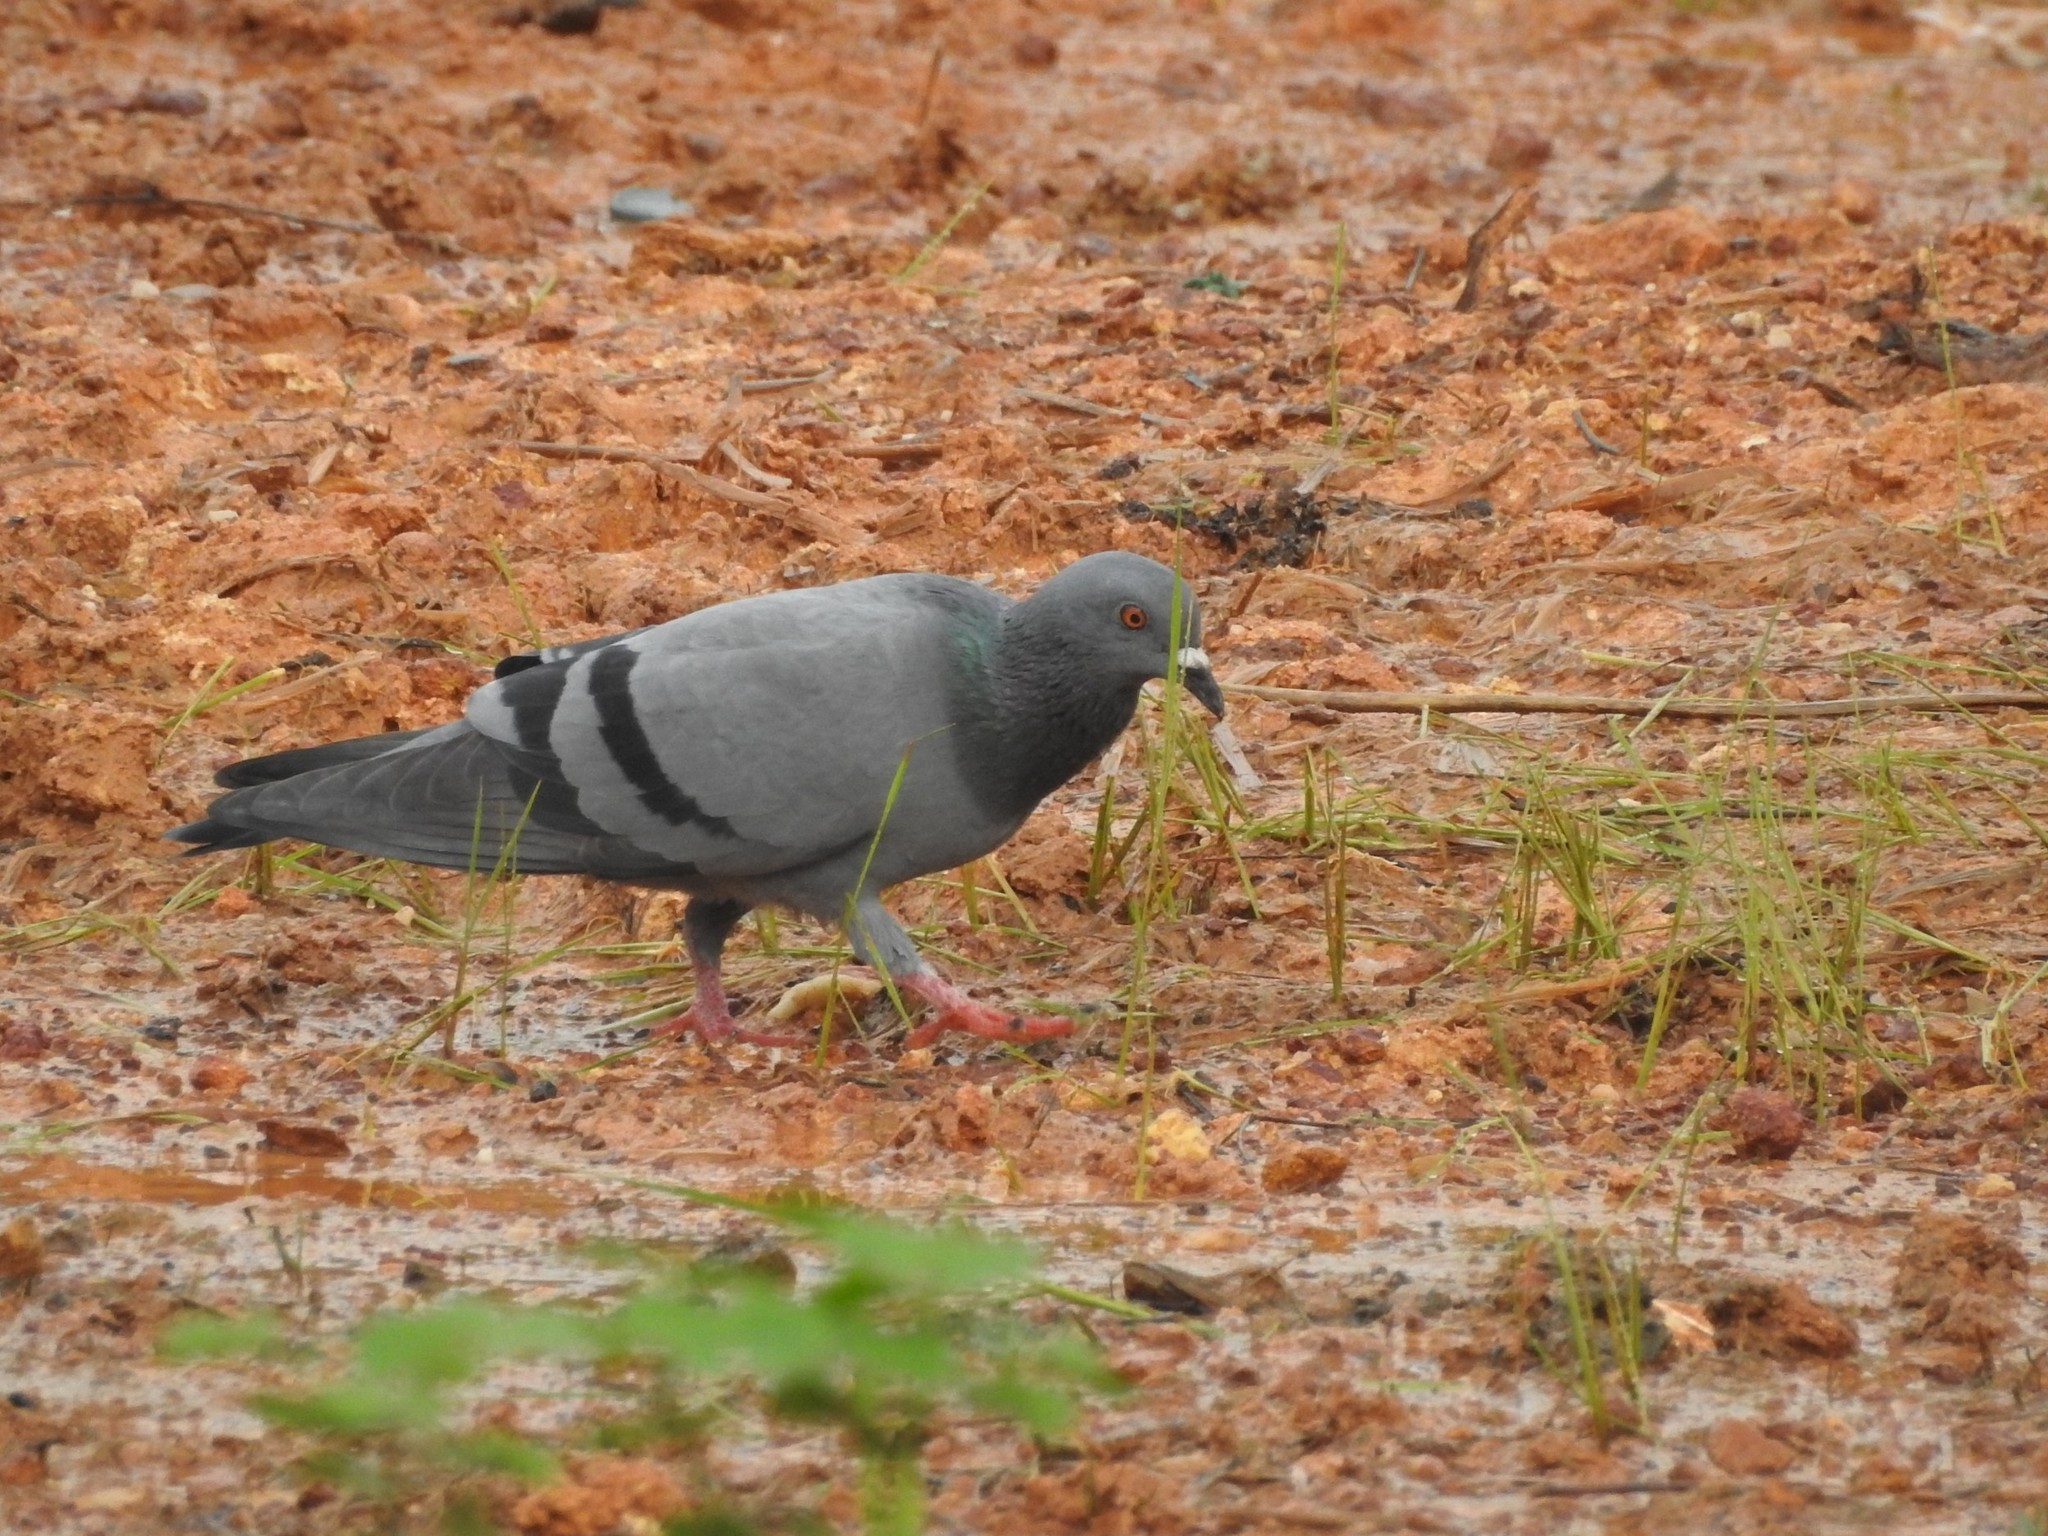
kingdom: Animalia
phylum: Chordata
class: Aves
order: Columbiformes
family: Columbidae
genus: Columba
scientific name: Columba livia
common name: Rock pigeon
